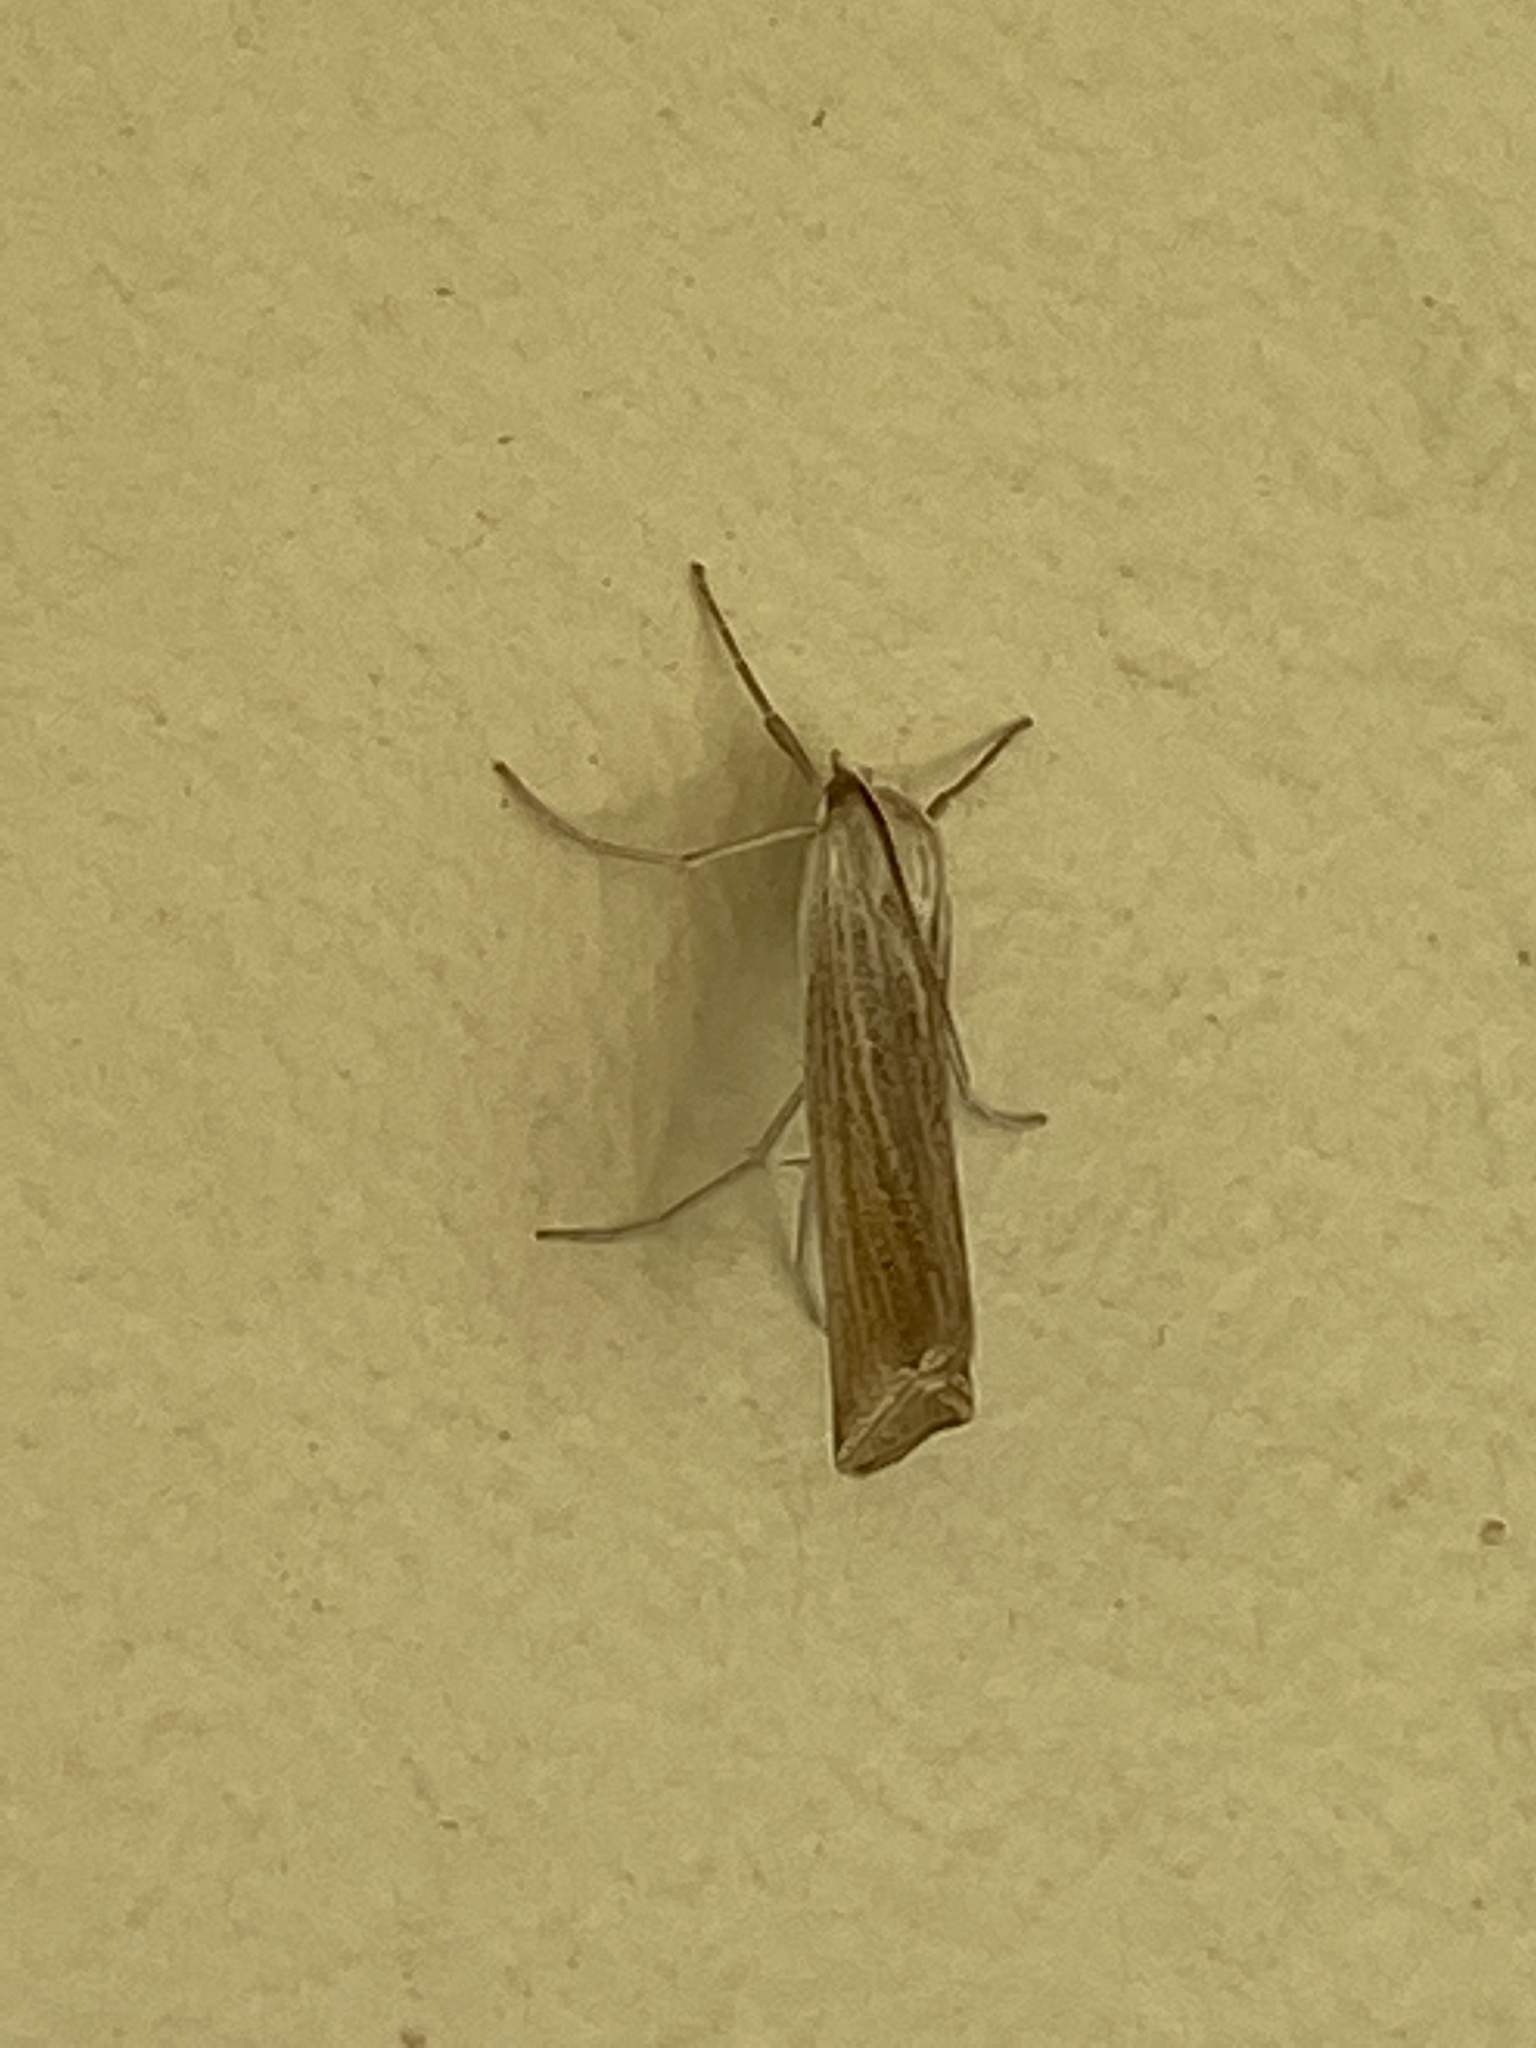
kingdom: Animalia
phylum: Arthropoda
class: Insecta
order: Lepidoptera
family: Crambidae
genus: Ancylolomia
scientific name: Ancylolomia capensis
